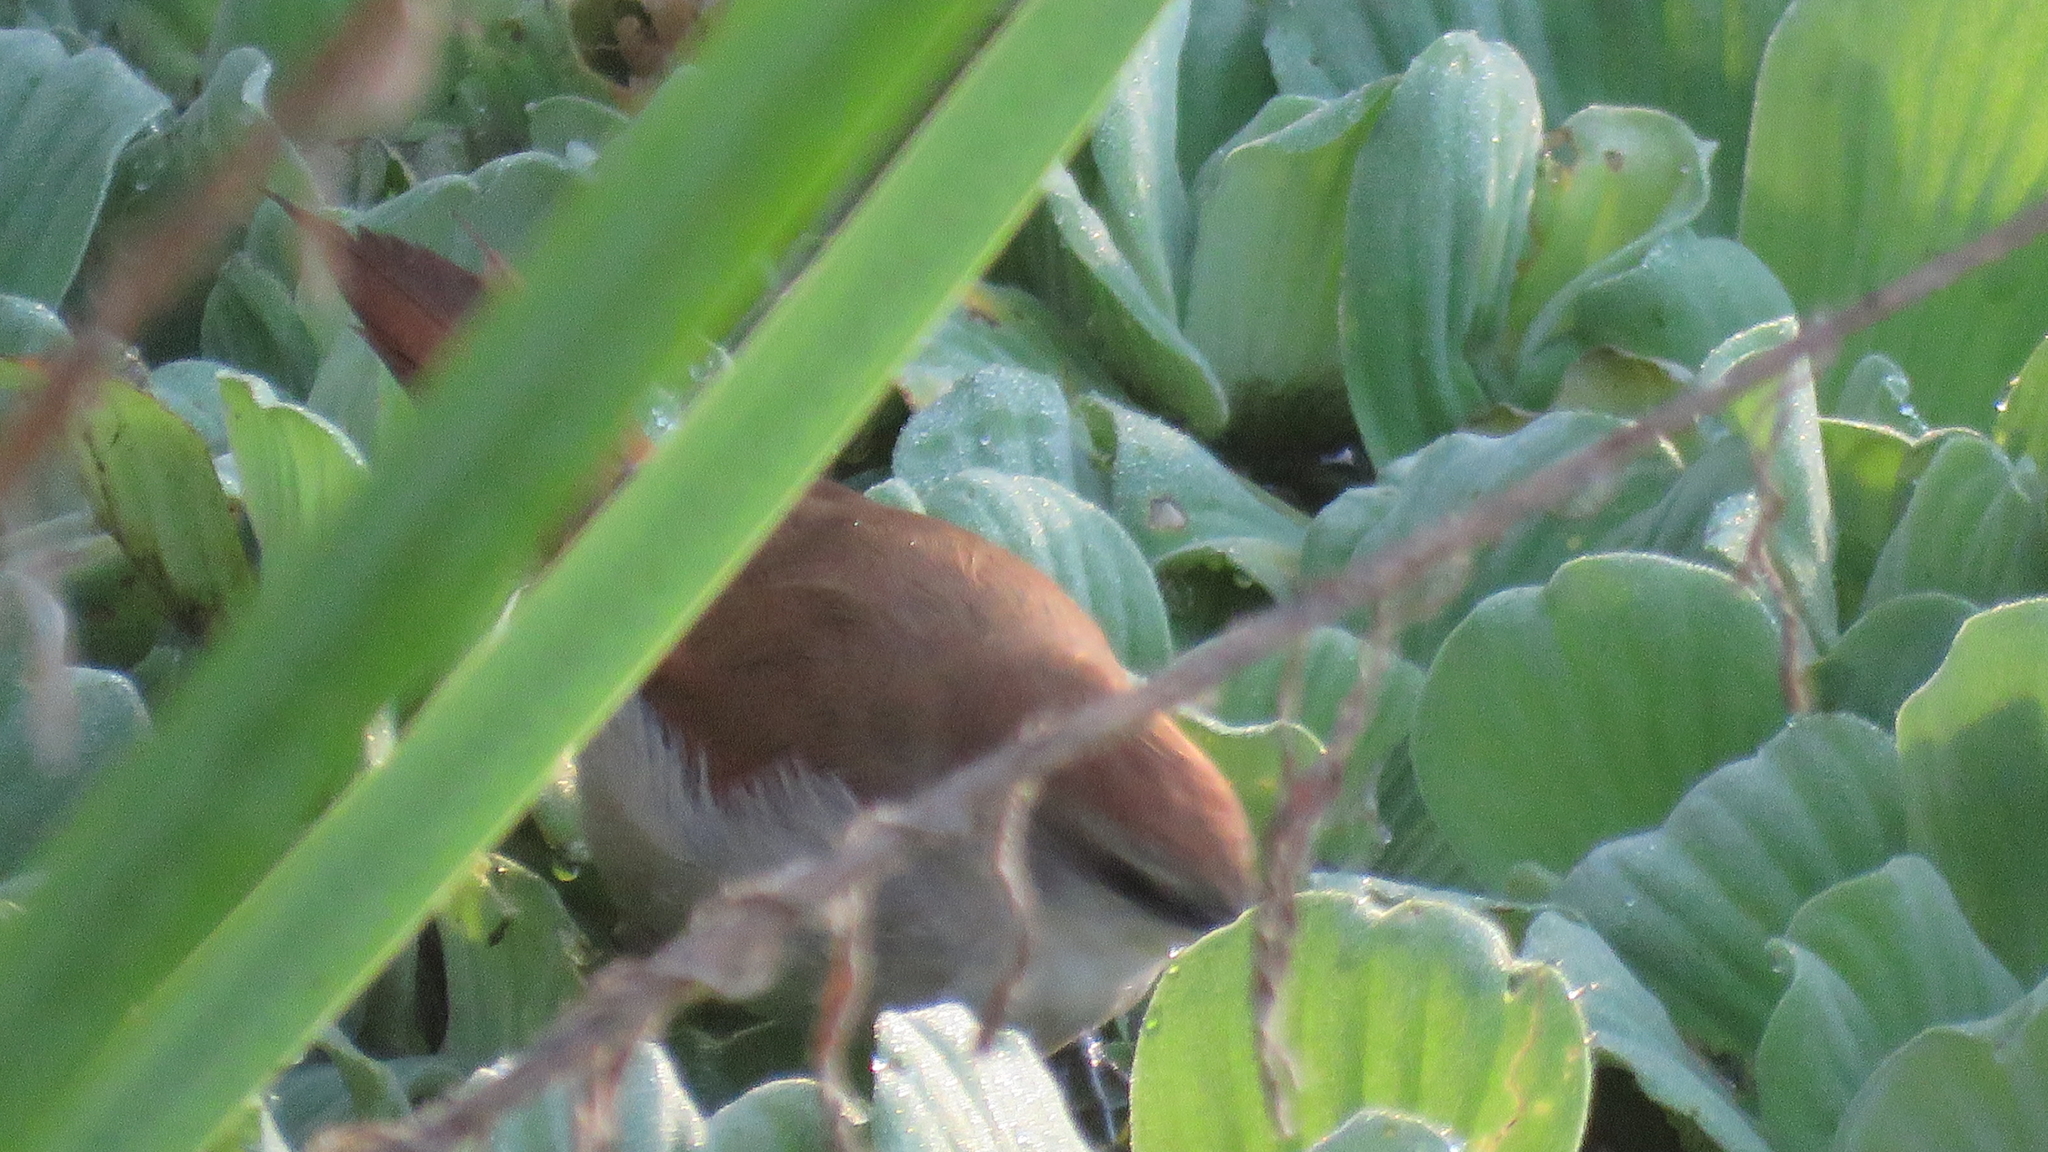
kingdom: Animalia
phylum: Chordata
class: Aves
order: Passeriformes
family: Furnariidae
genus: Certhiaxis
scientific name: Certhiaxis cinnamomeus
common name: Yellow-chinned spinetail
